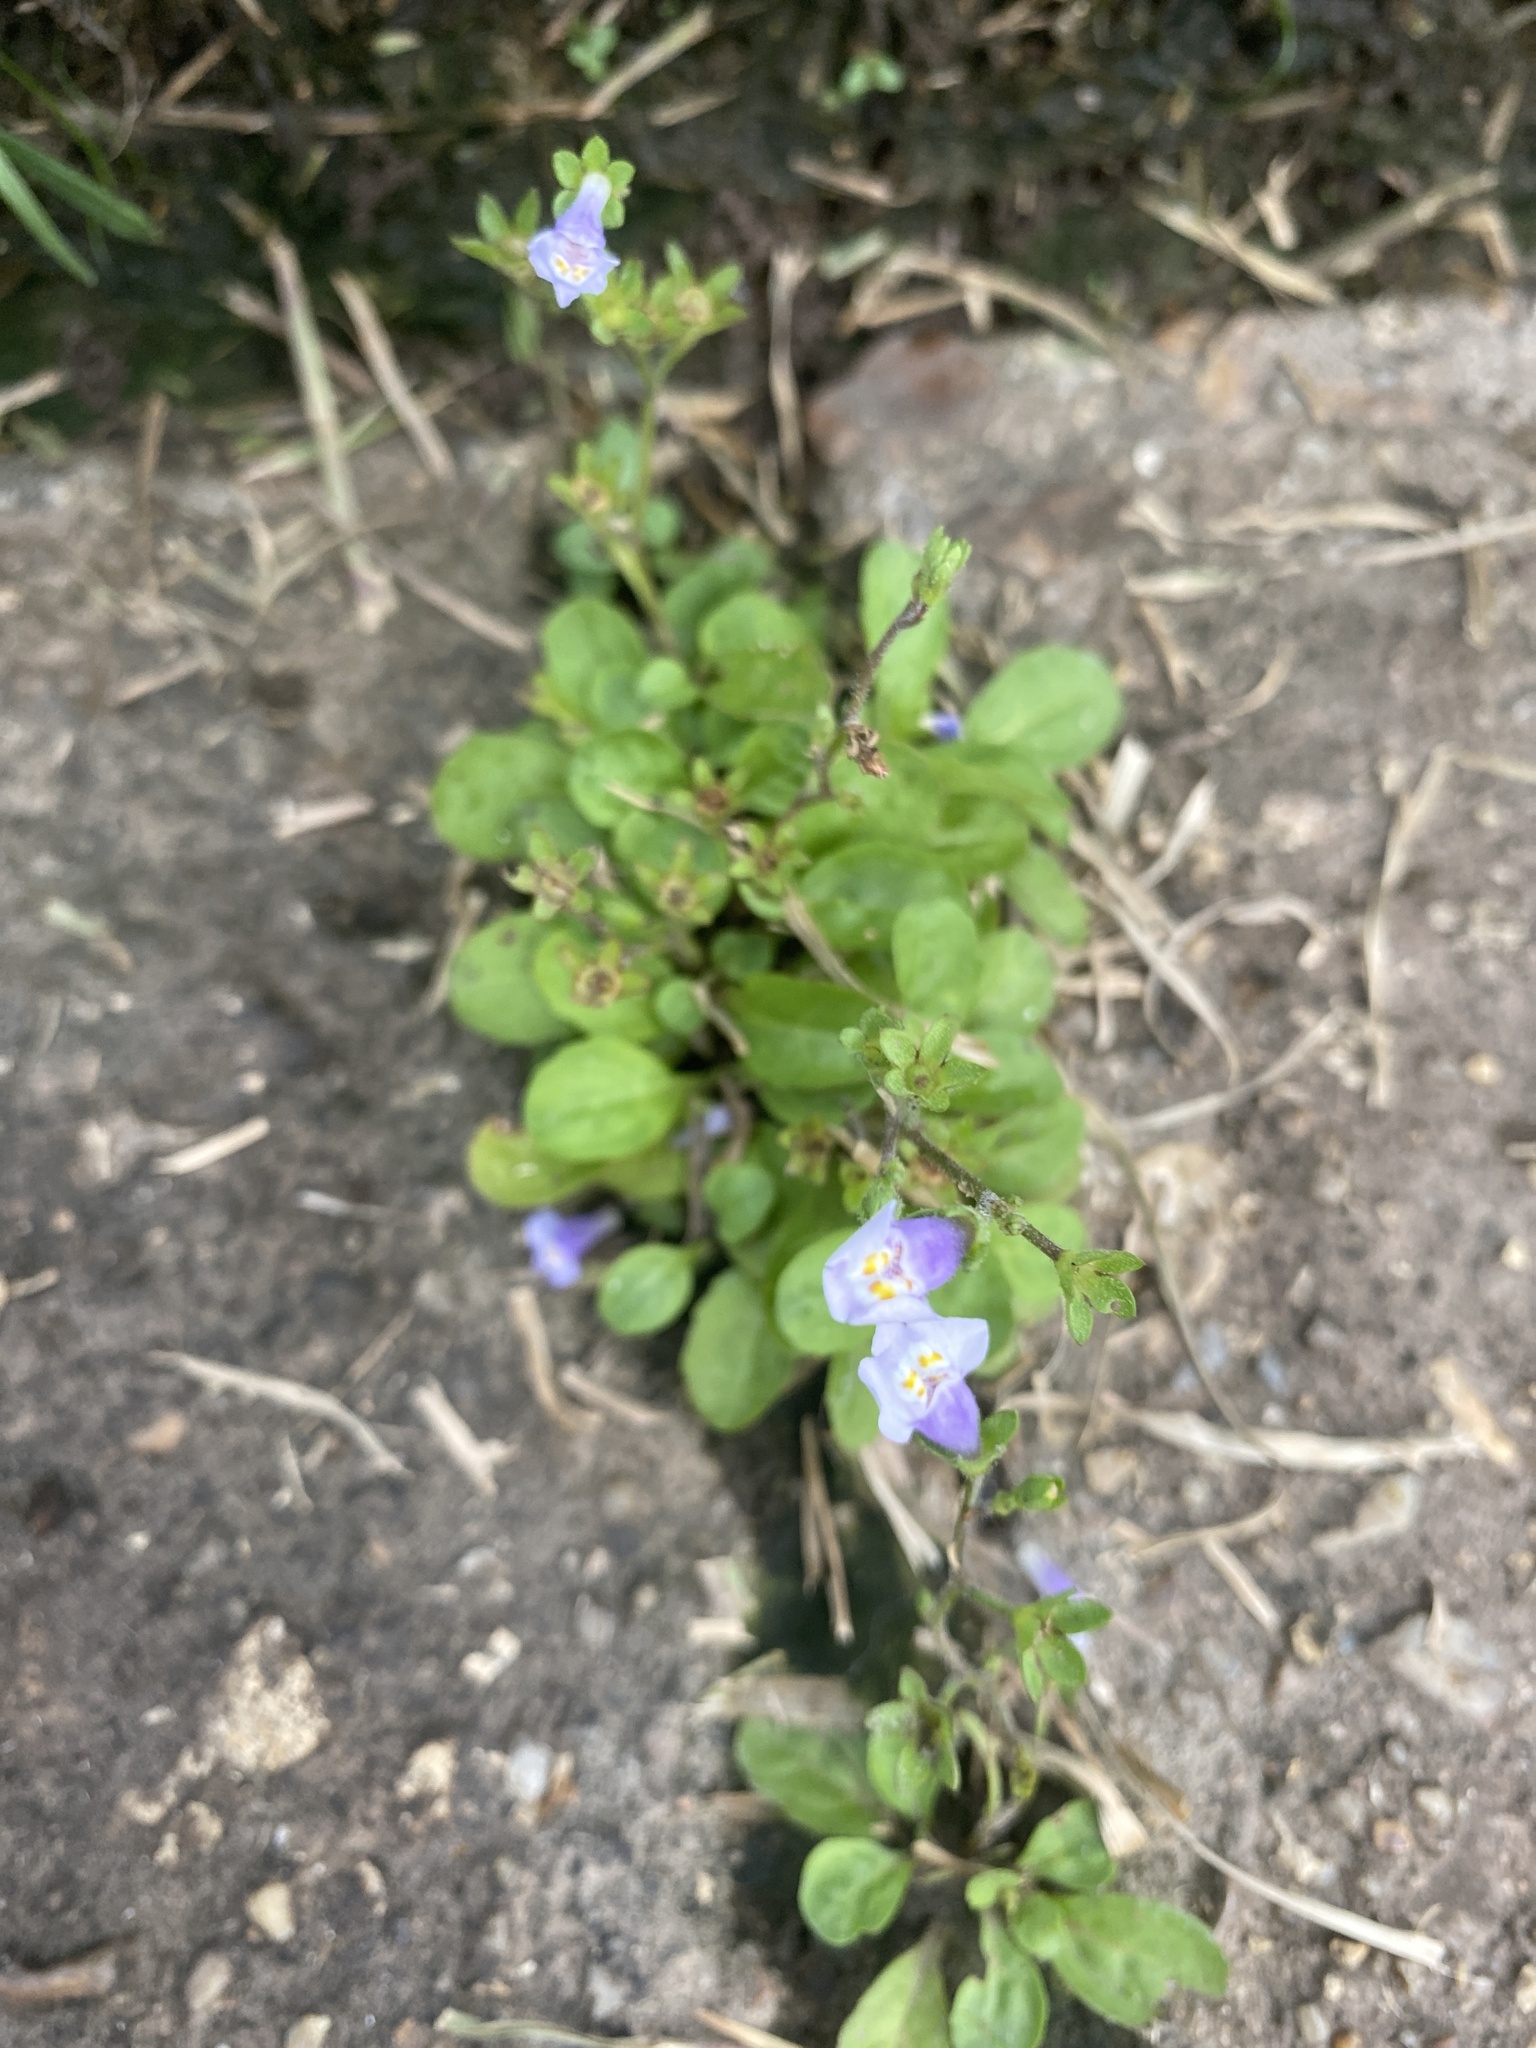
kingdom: Plantae
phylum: Tracheophyta
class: Magnoliopsida
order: Lamiales
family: Mazaceae
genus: Mazus
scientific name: Mazus pumilus
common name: Japanese mazus
